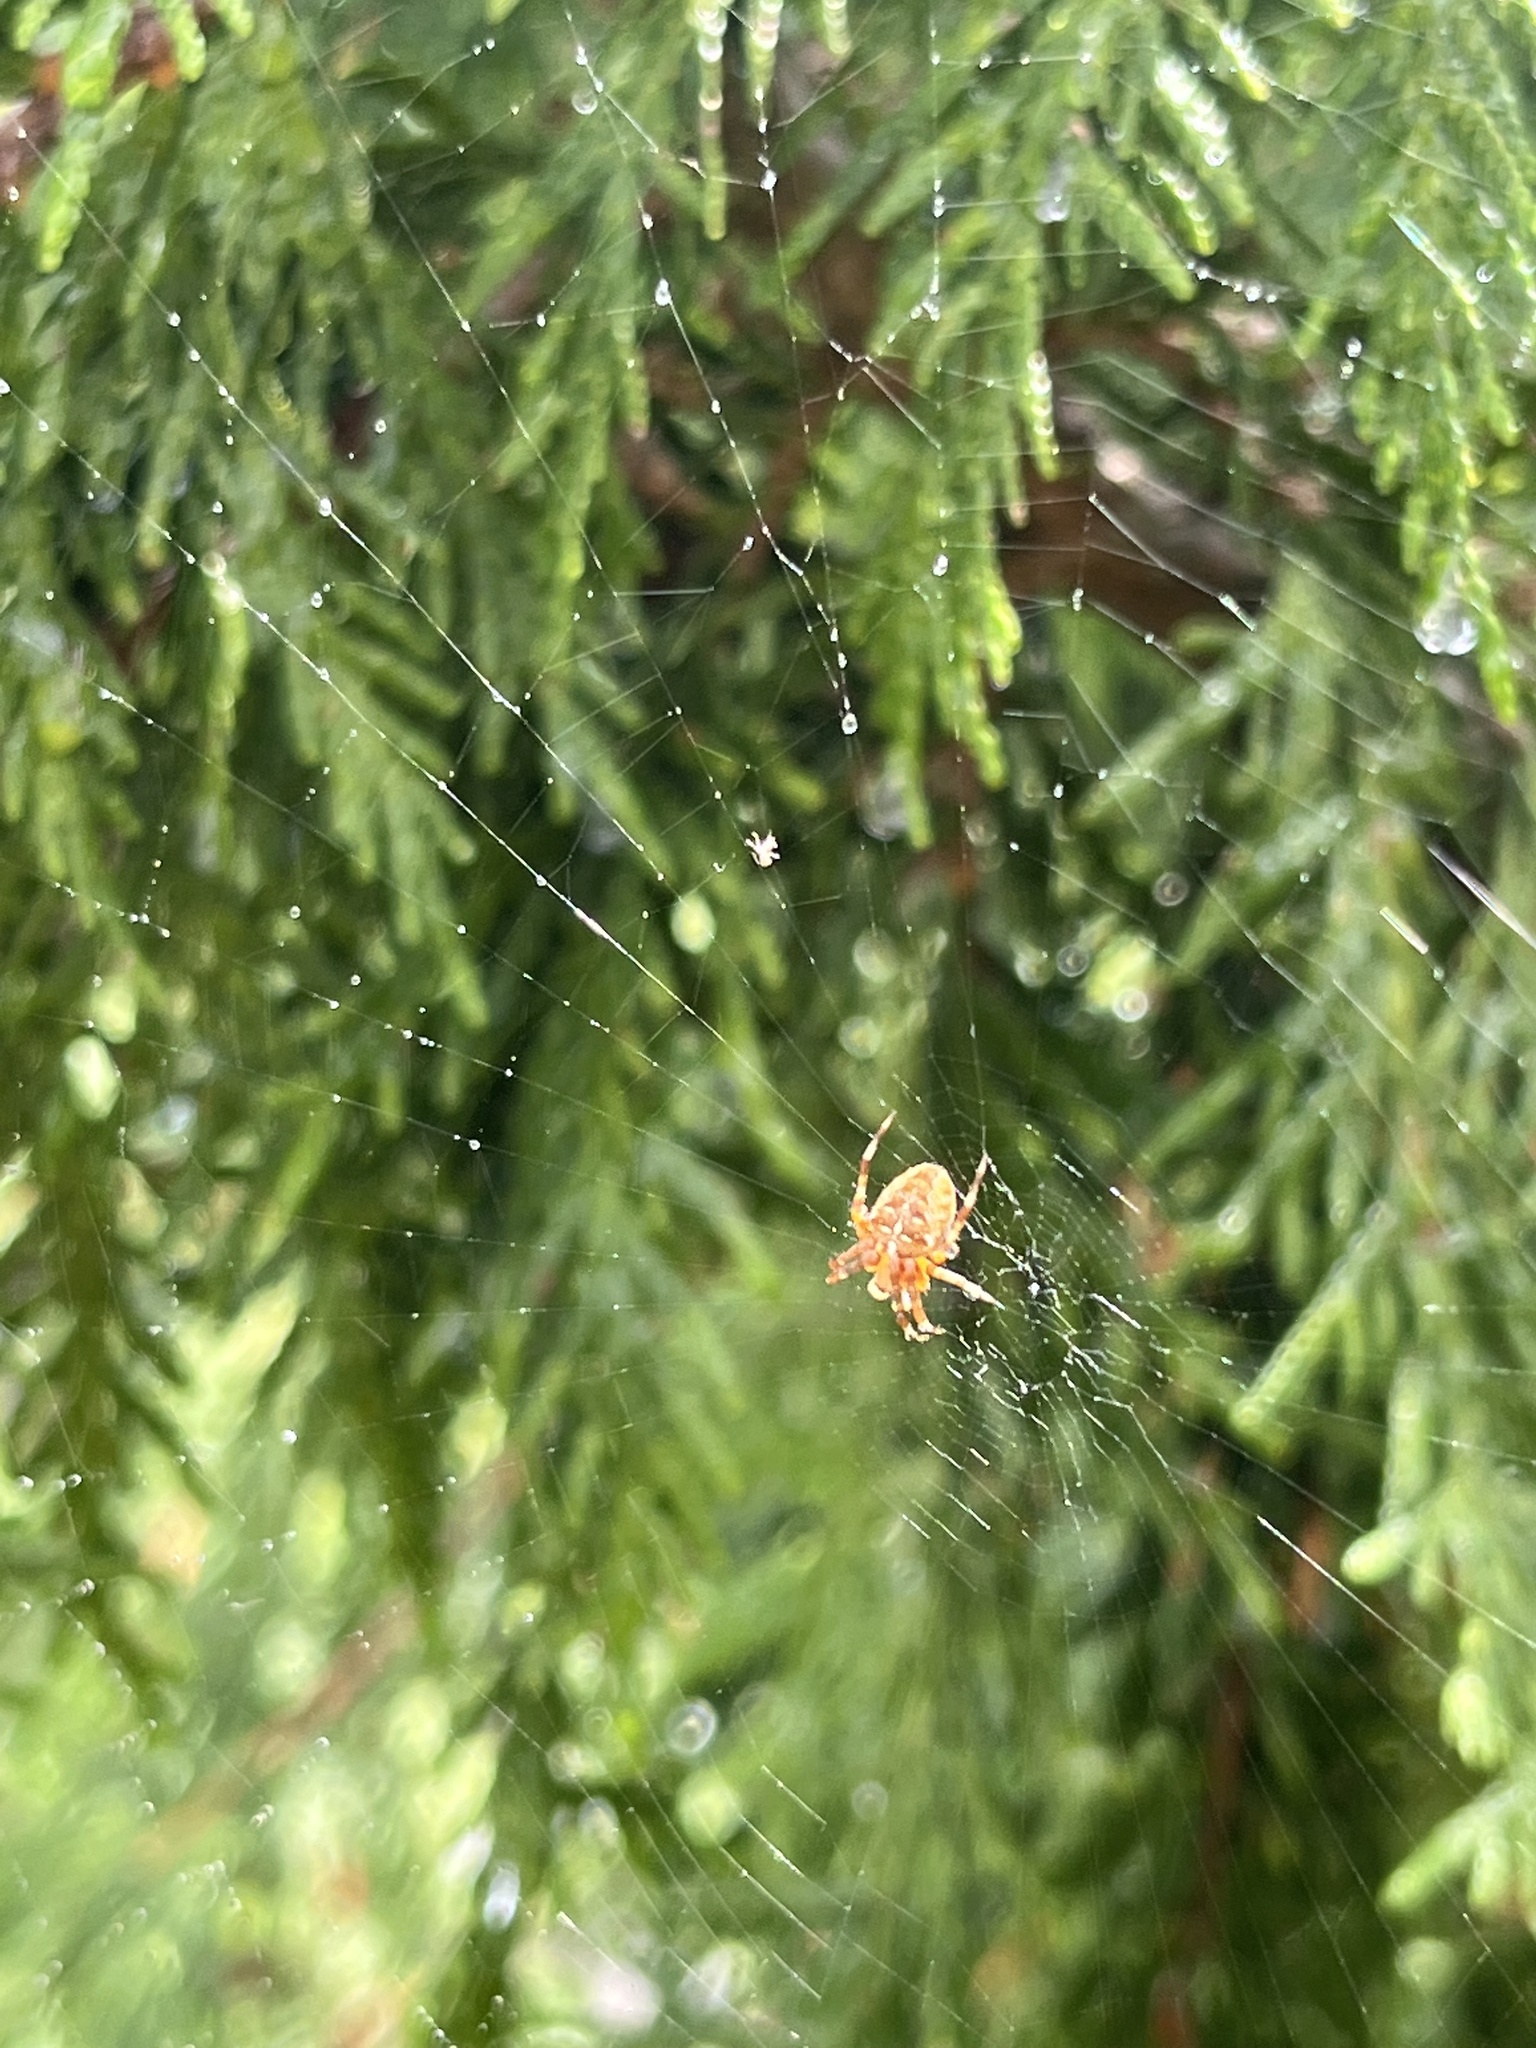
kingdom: Animalia
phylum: Arthropoda
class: Arachnida
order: Araneae
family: Araneidae
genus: Araneus
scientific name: Araneus diadematus
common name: Cross orbweaver
